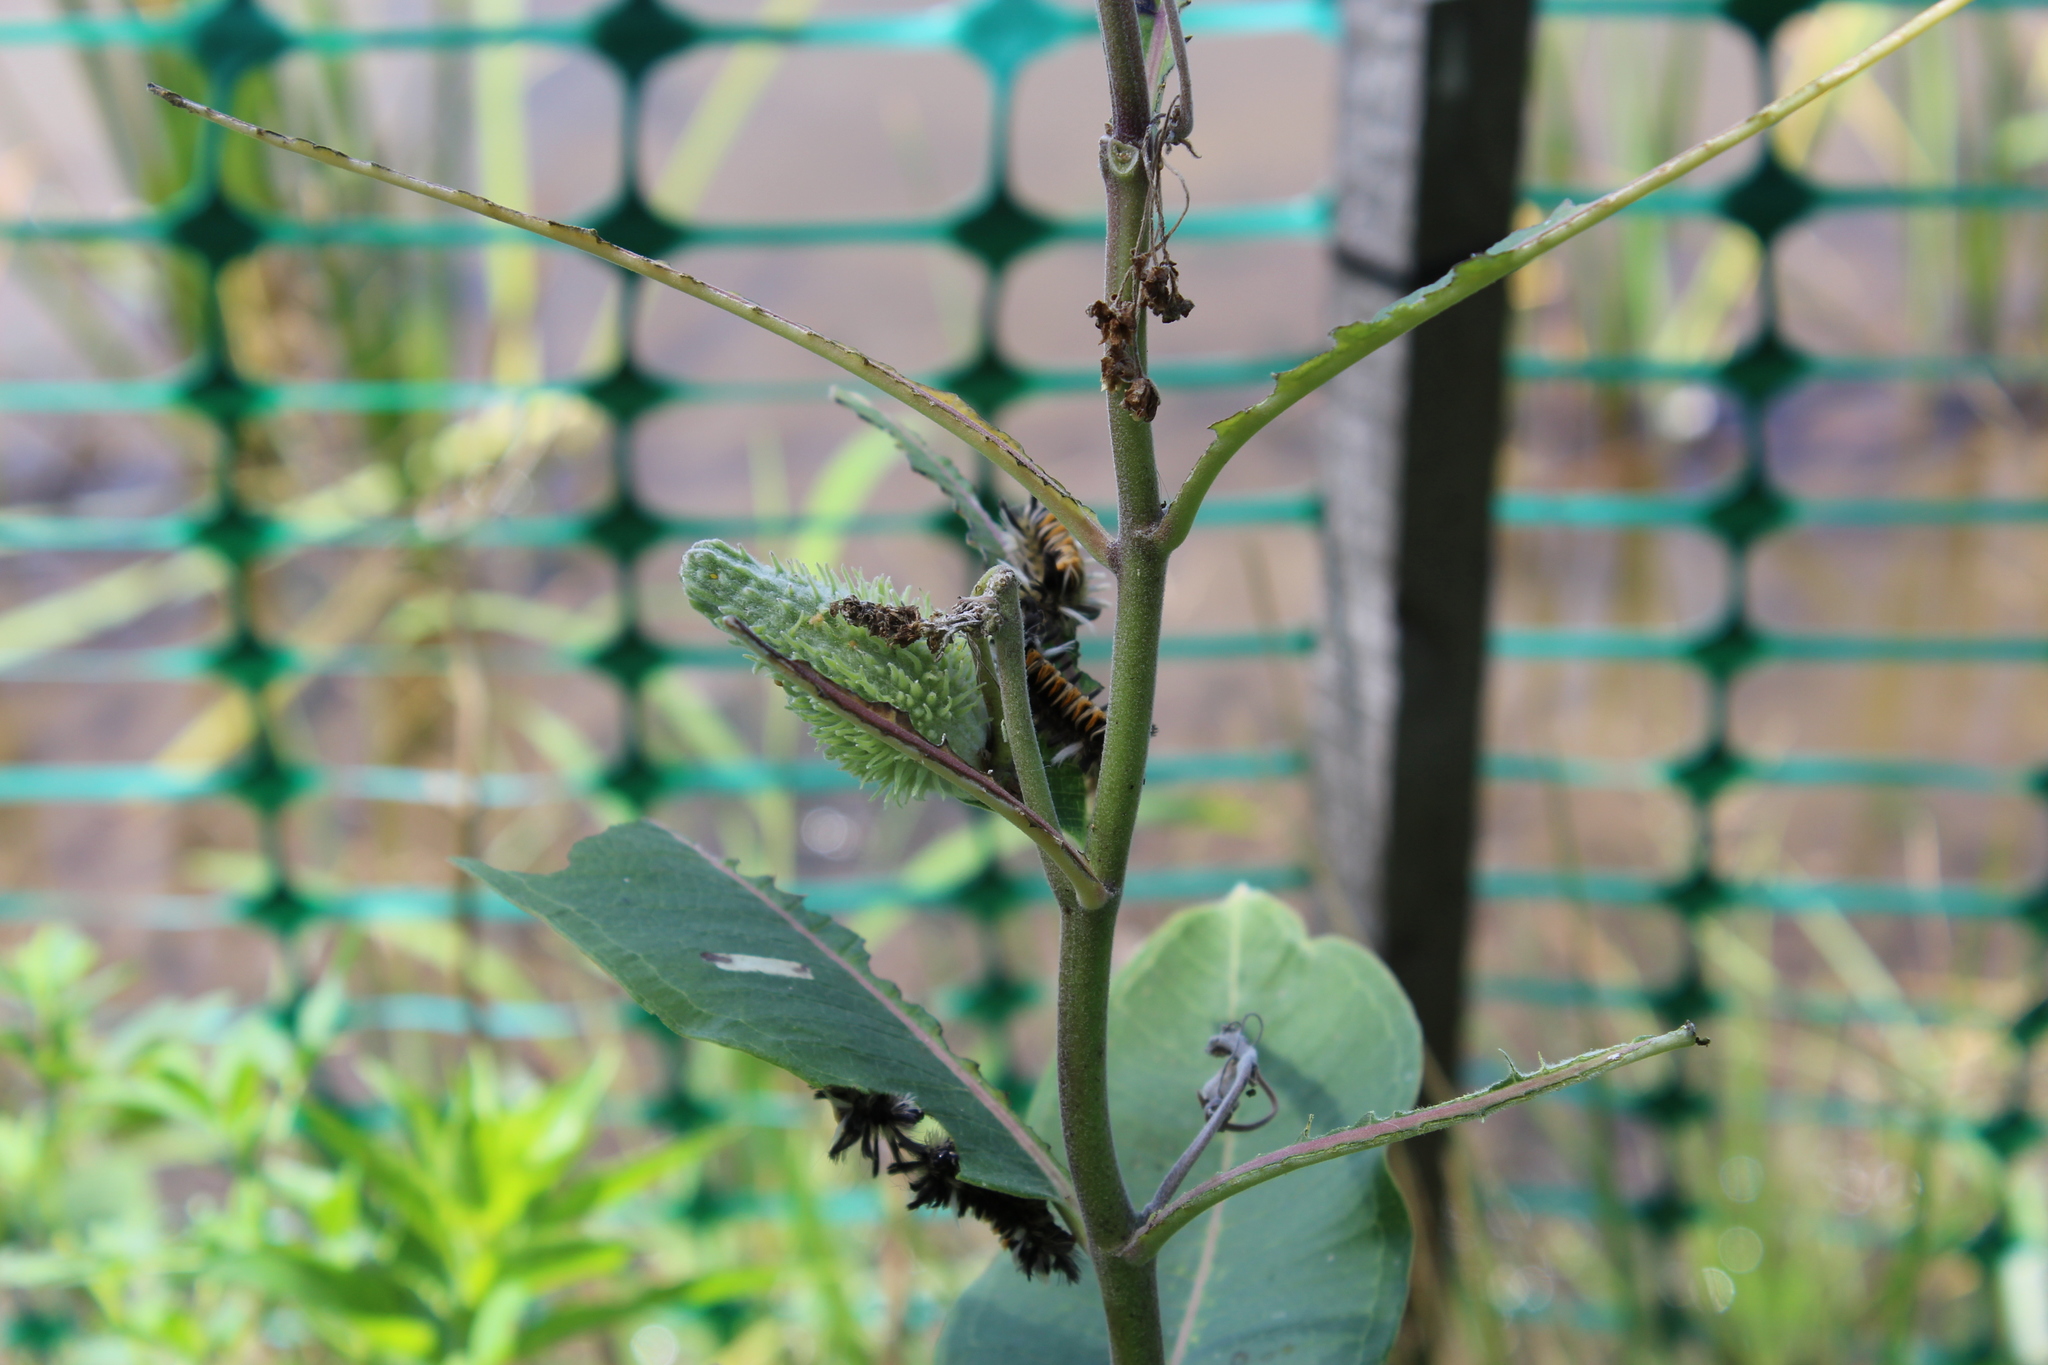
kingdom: Animalia
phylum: Arthropoda
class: Insecta
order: Lepidoptera
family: Erebidae
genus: Euchaetes
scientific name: Euchaetes egle
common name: Milkweed tussock moth
